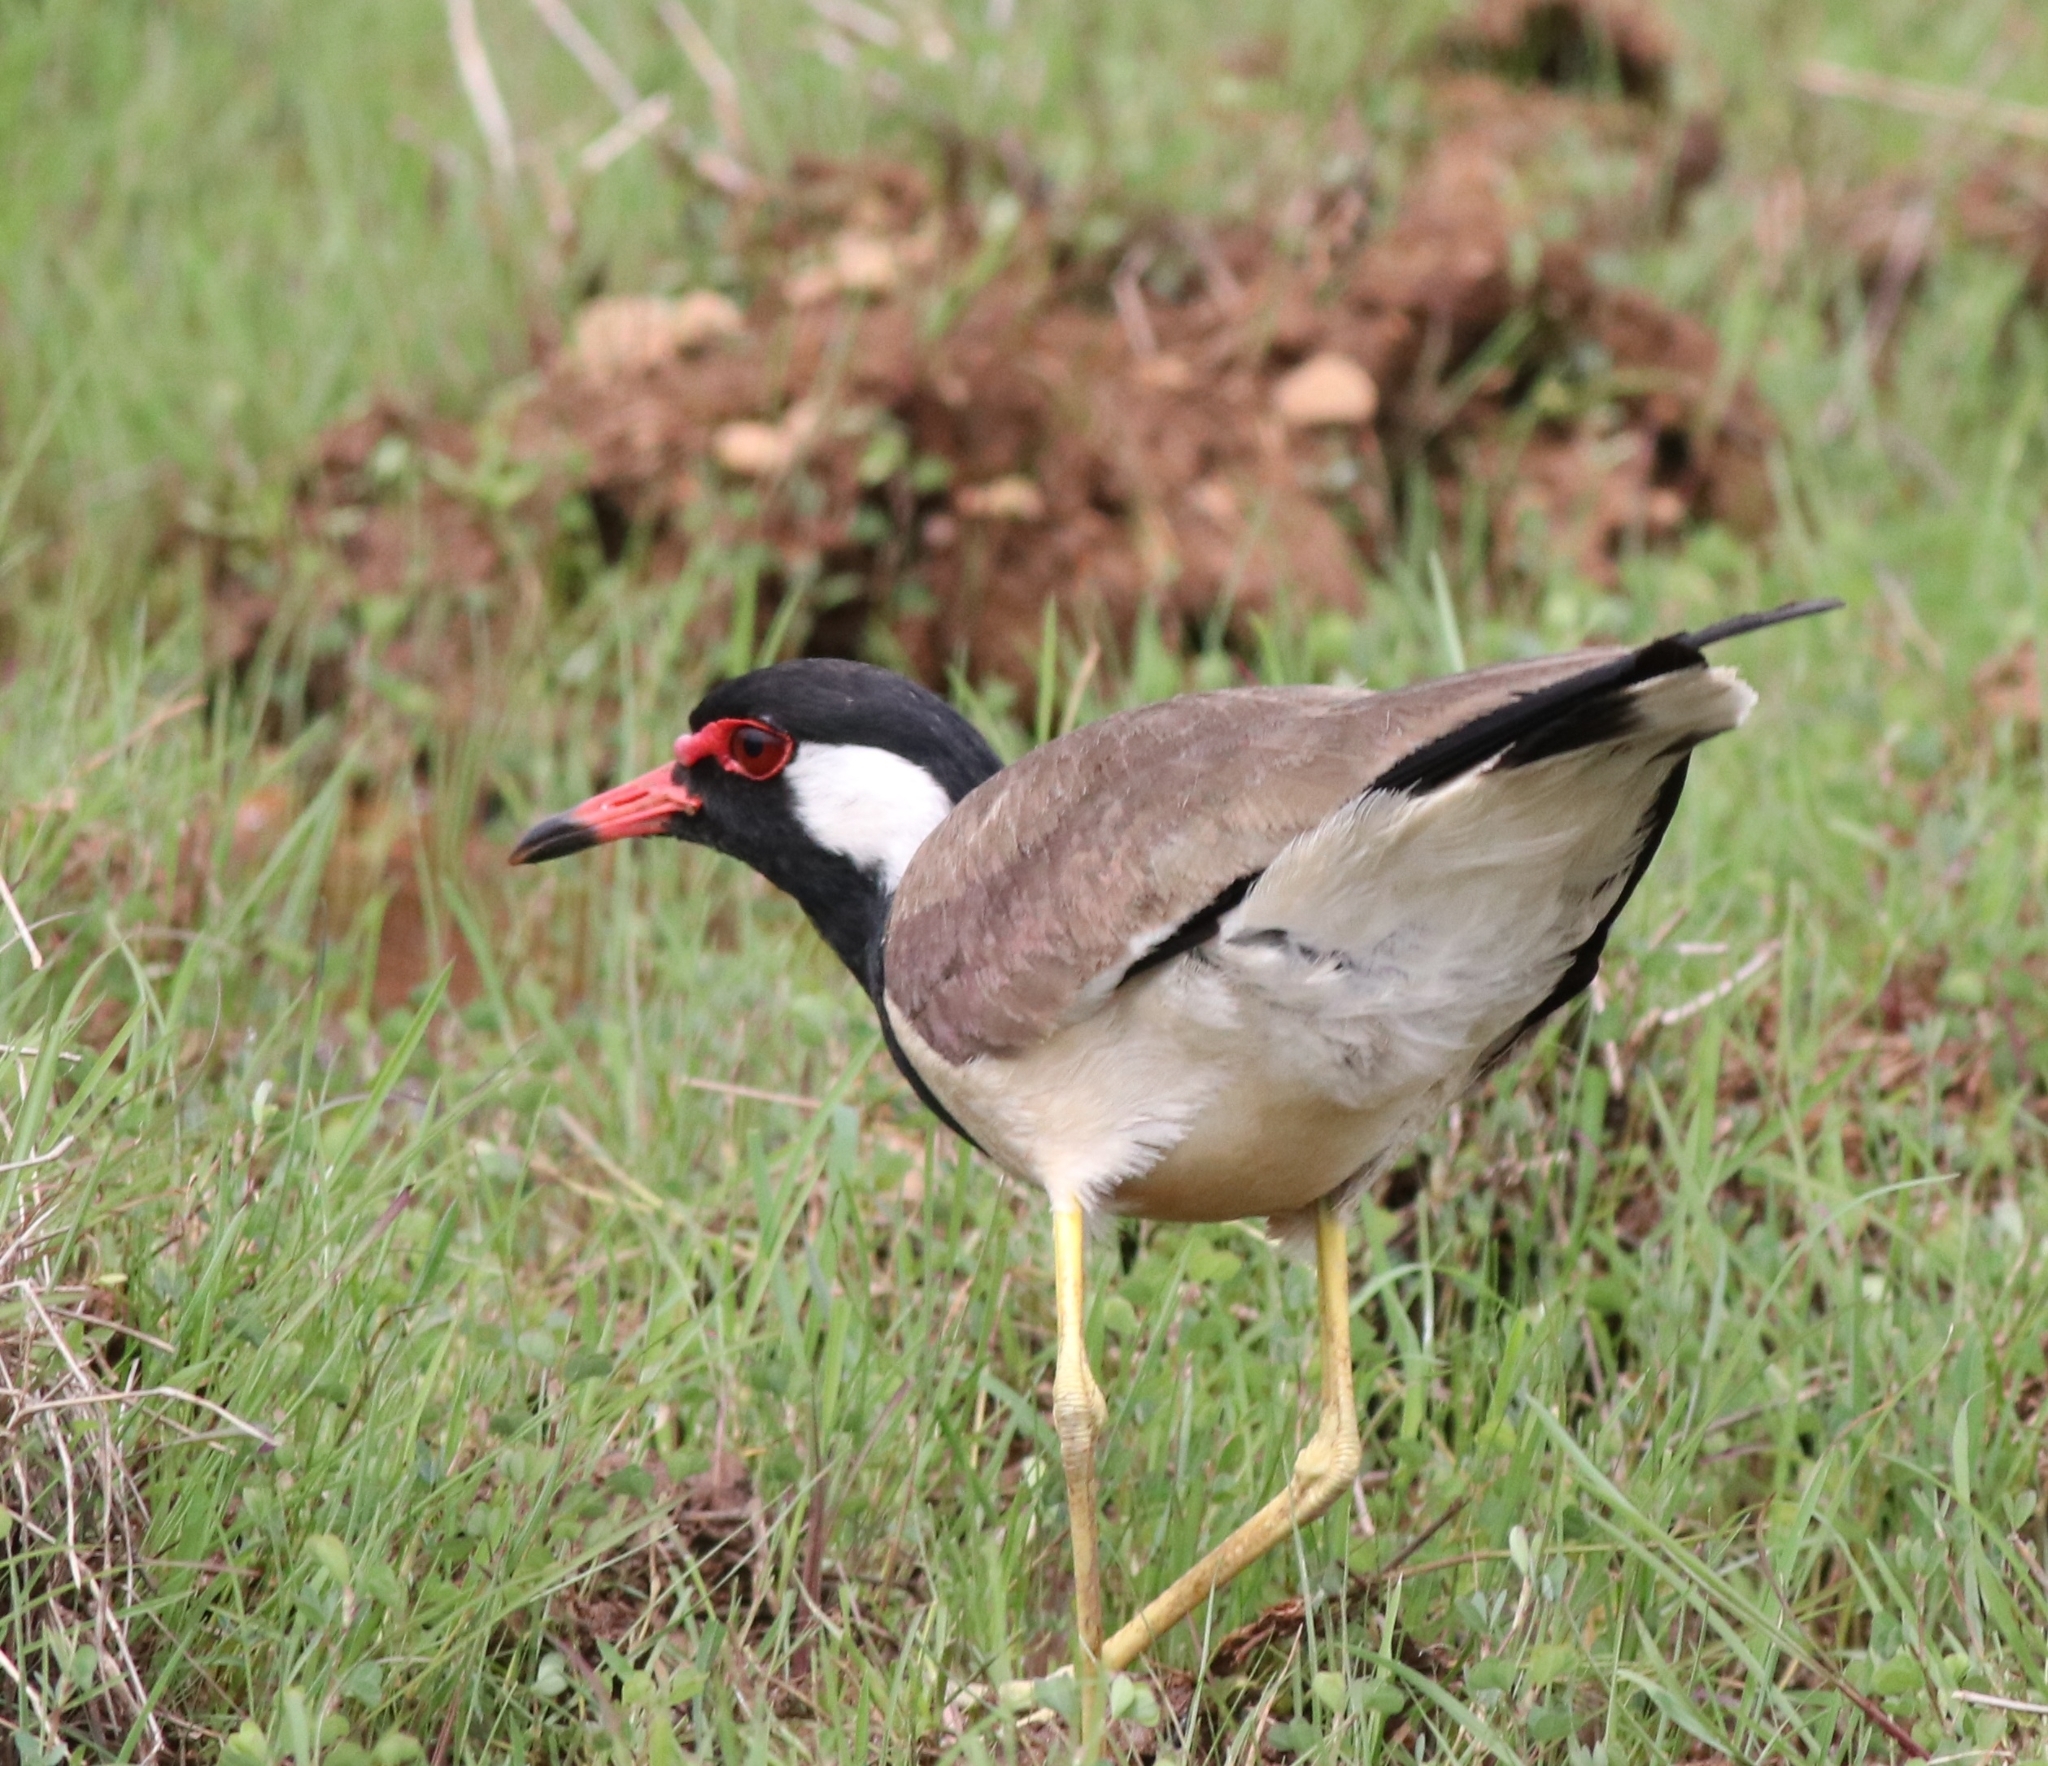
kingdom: Animalia
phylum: Chordata
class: Aves
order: Charadriiformes
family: Charadriidae
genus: Vanellus
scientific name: Vanellus indicus
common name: Red-wattled lapwing
